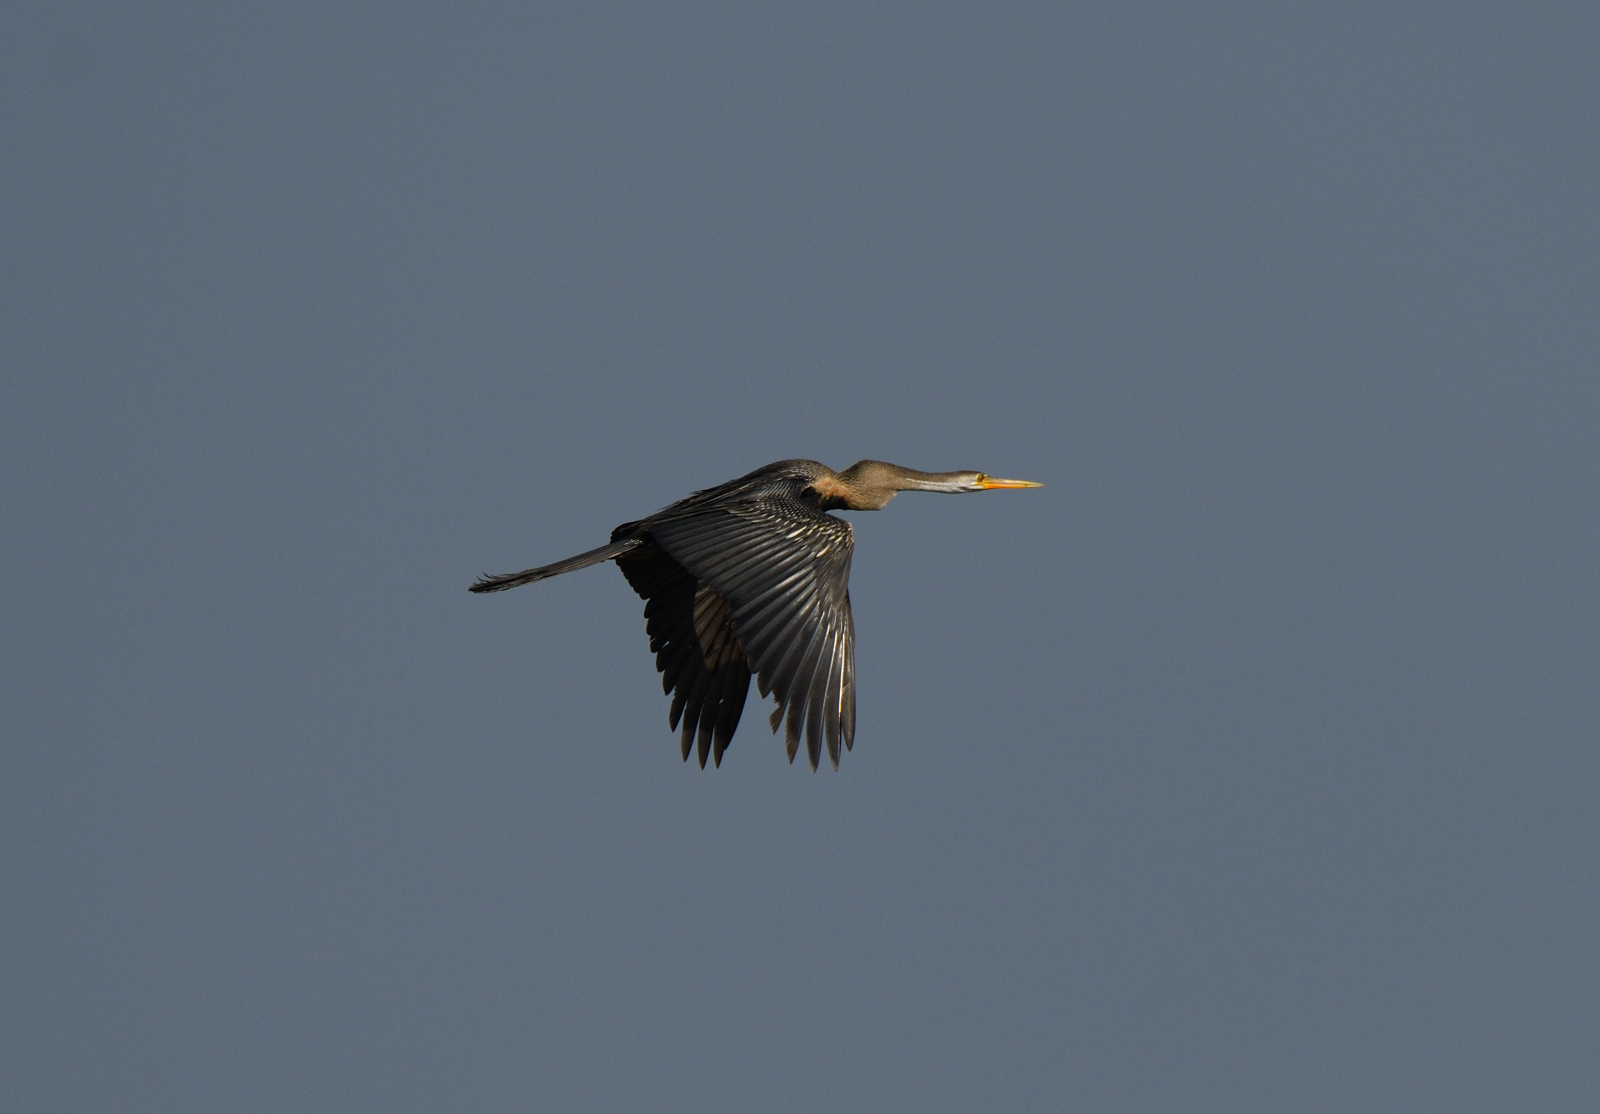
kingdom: Animalia
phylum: Chordata
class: Aves
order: Suliformes
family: Anhingidae
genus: Anhinga
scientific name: Anhinga melanogaster
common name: Oriental darter
